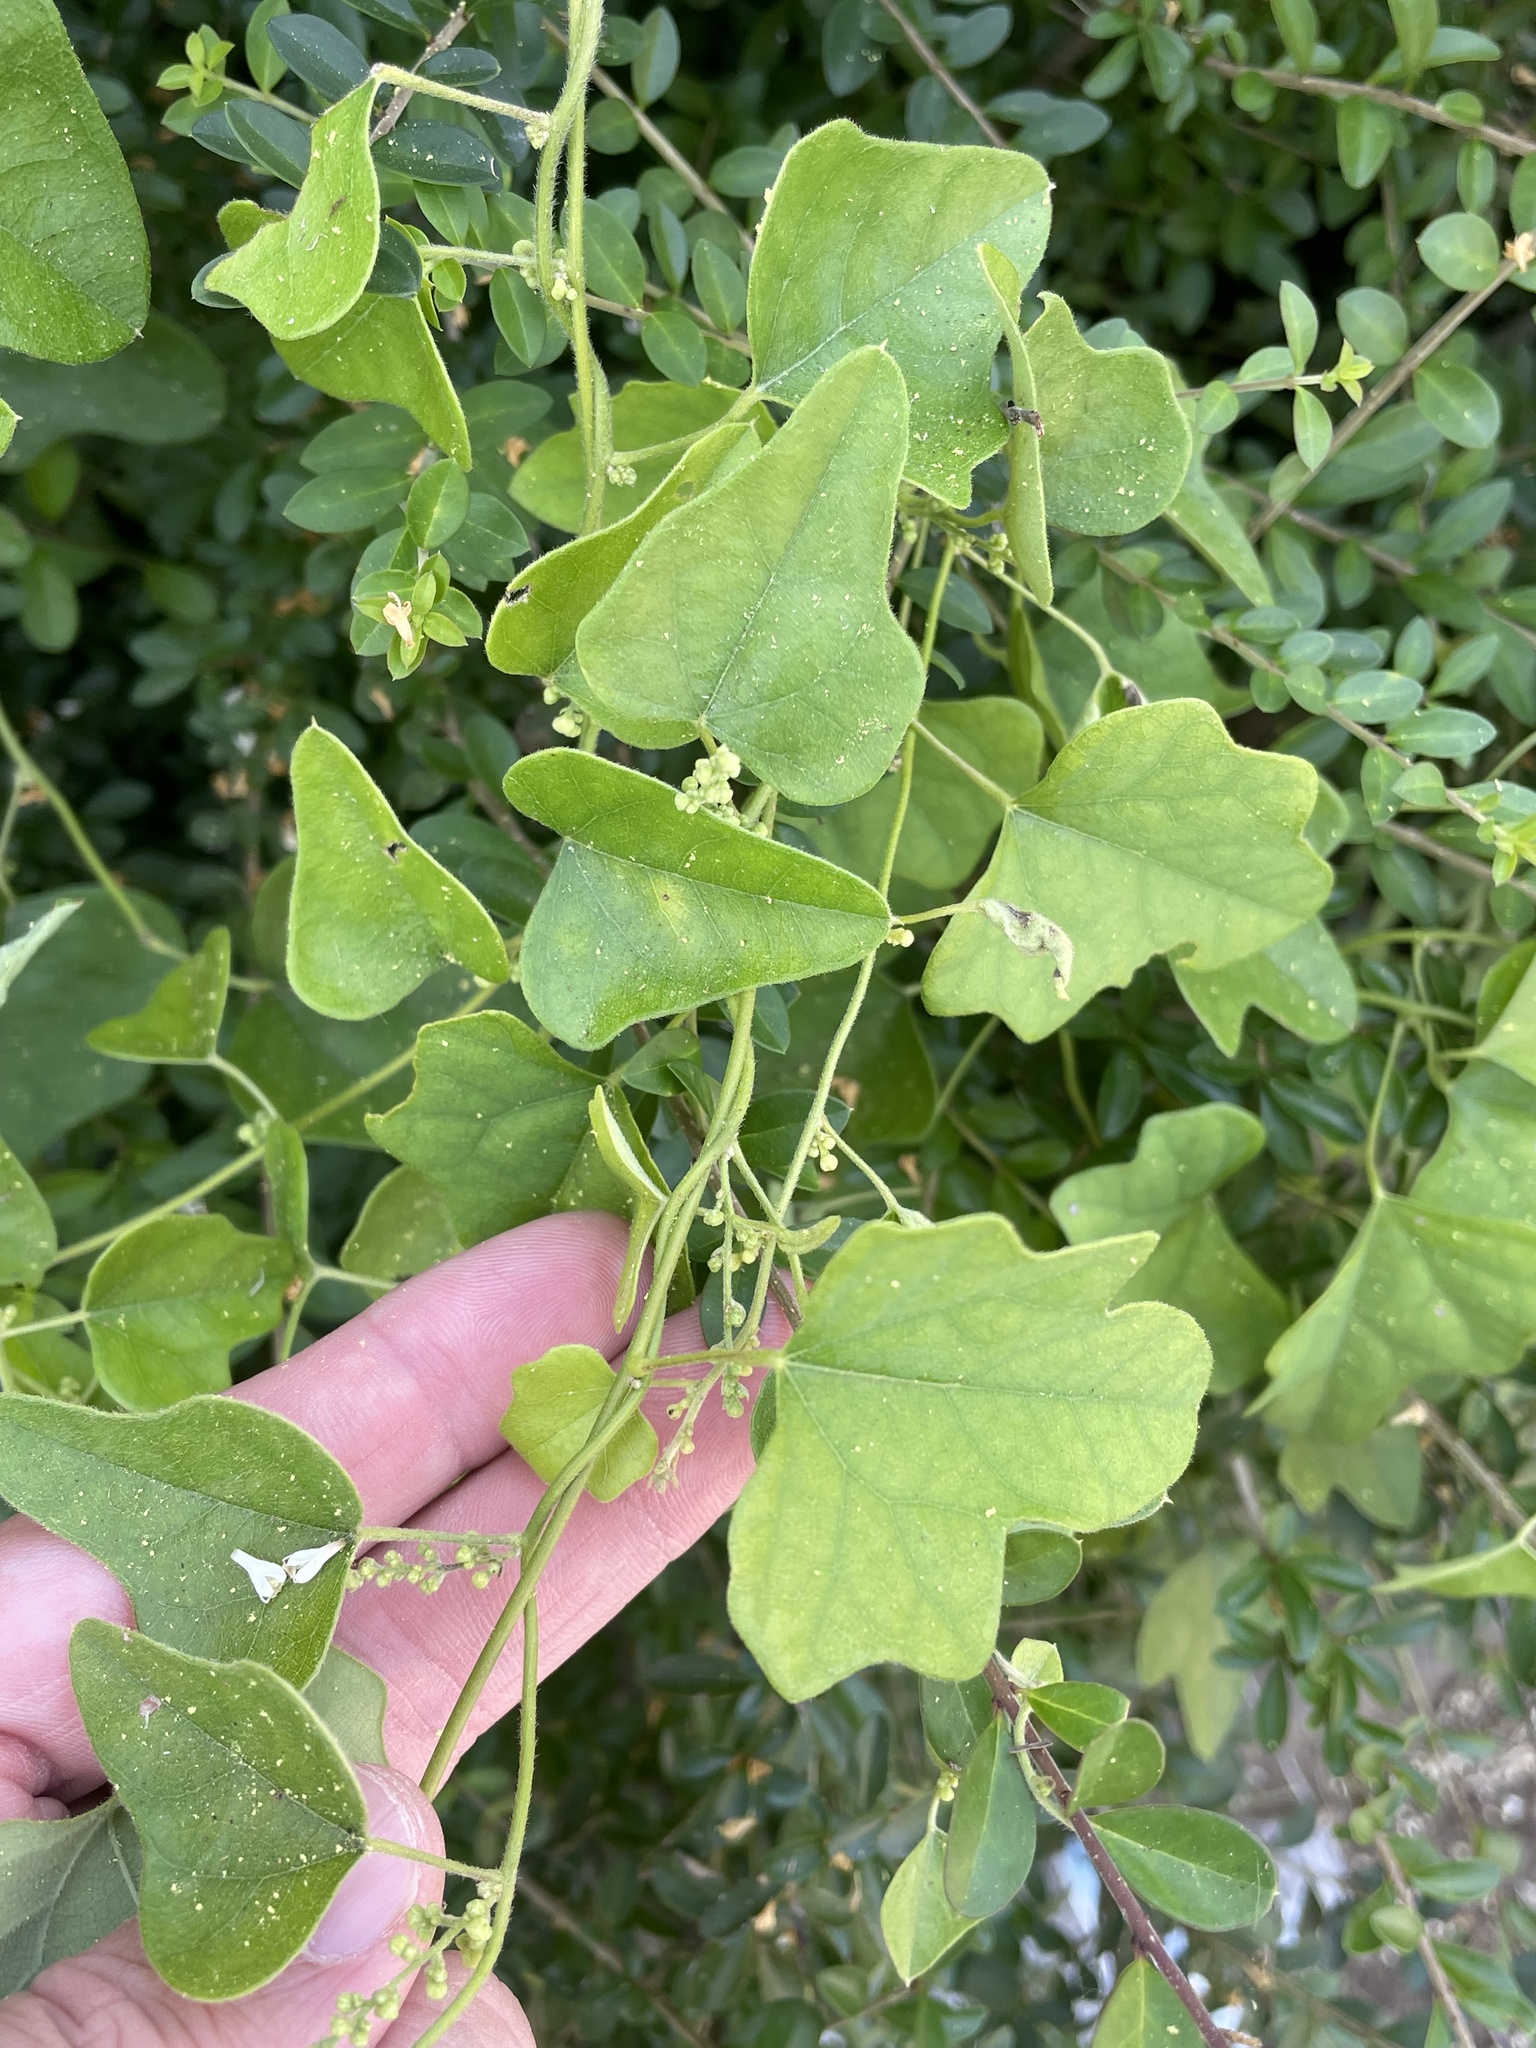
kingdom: Plantae
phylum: Tracheophyta
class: Magnoliopsida
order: Ranunculales
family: Menispermaceae
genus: Cocculus
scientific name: Cocculus carolinus
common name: Carolina moonseed
